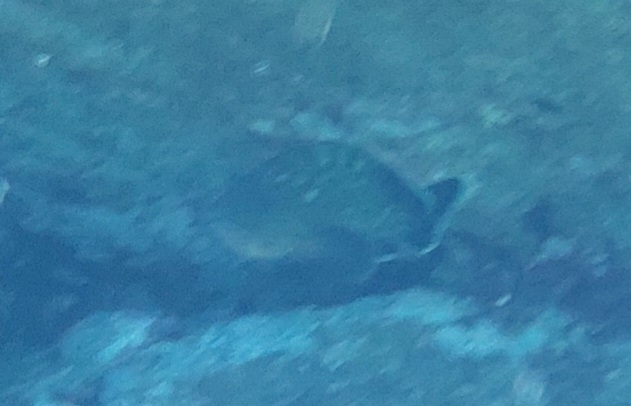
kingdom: Animalia
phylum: Chordata
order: Perciformes
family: Serranidae
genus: Epinephelus
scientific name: Epinephelus marginatus
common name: Dusky grouper
